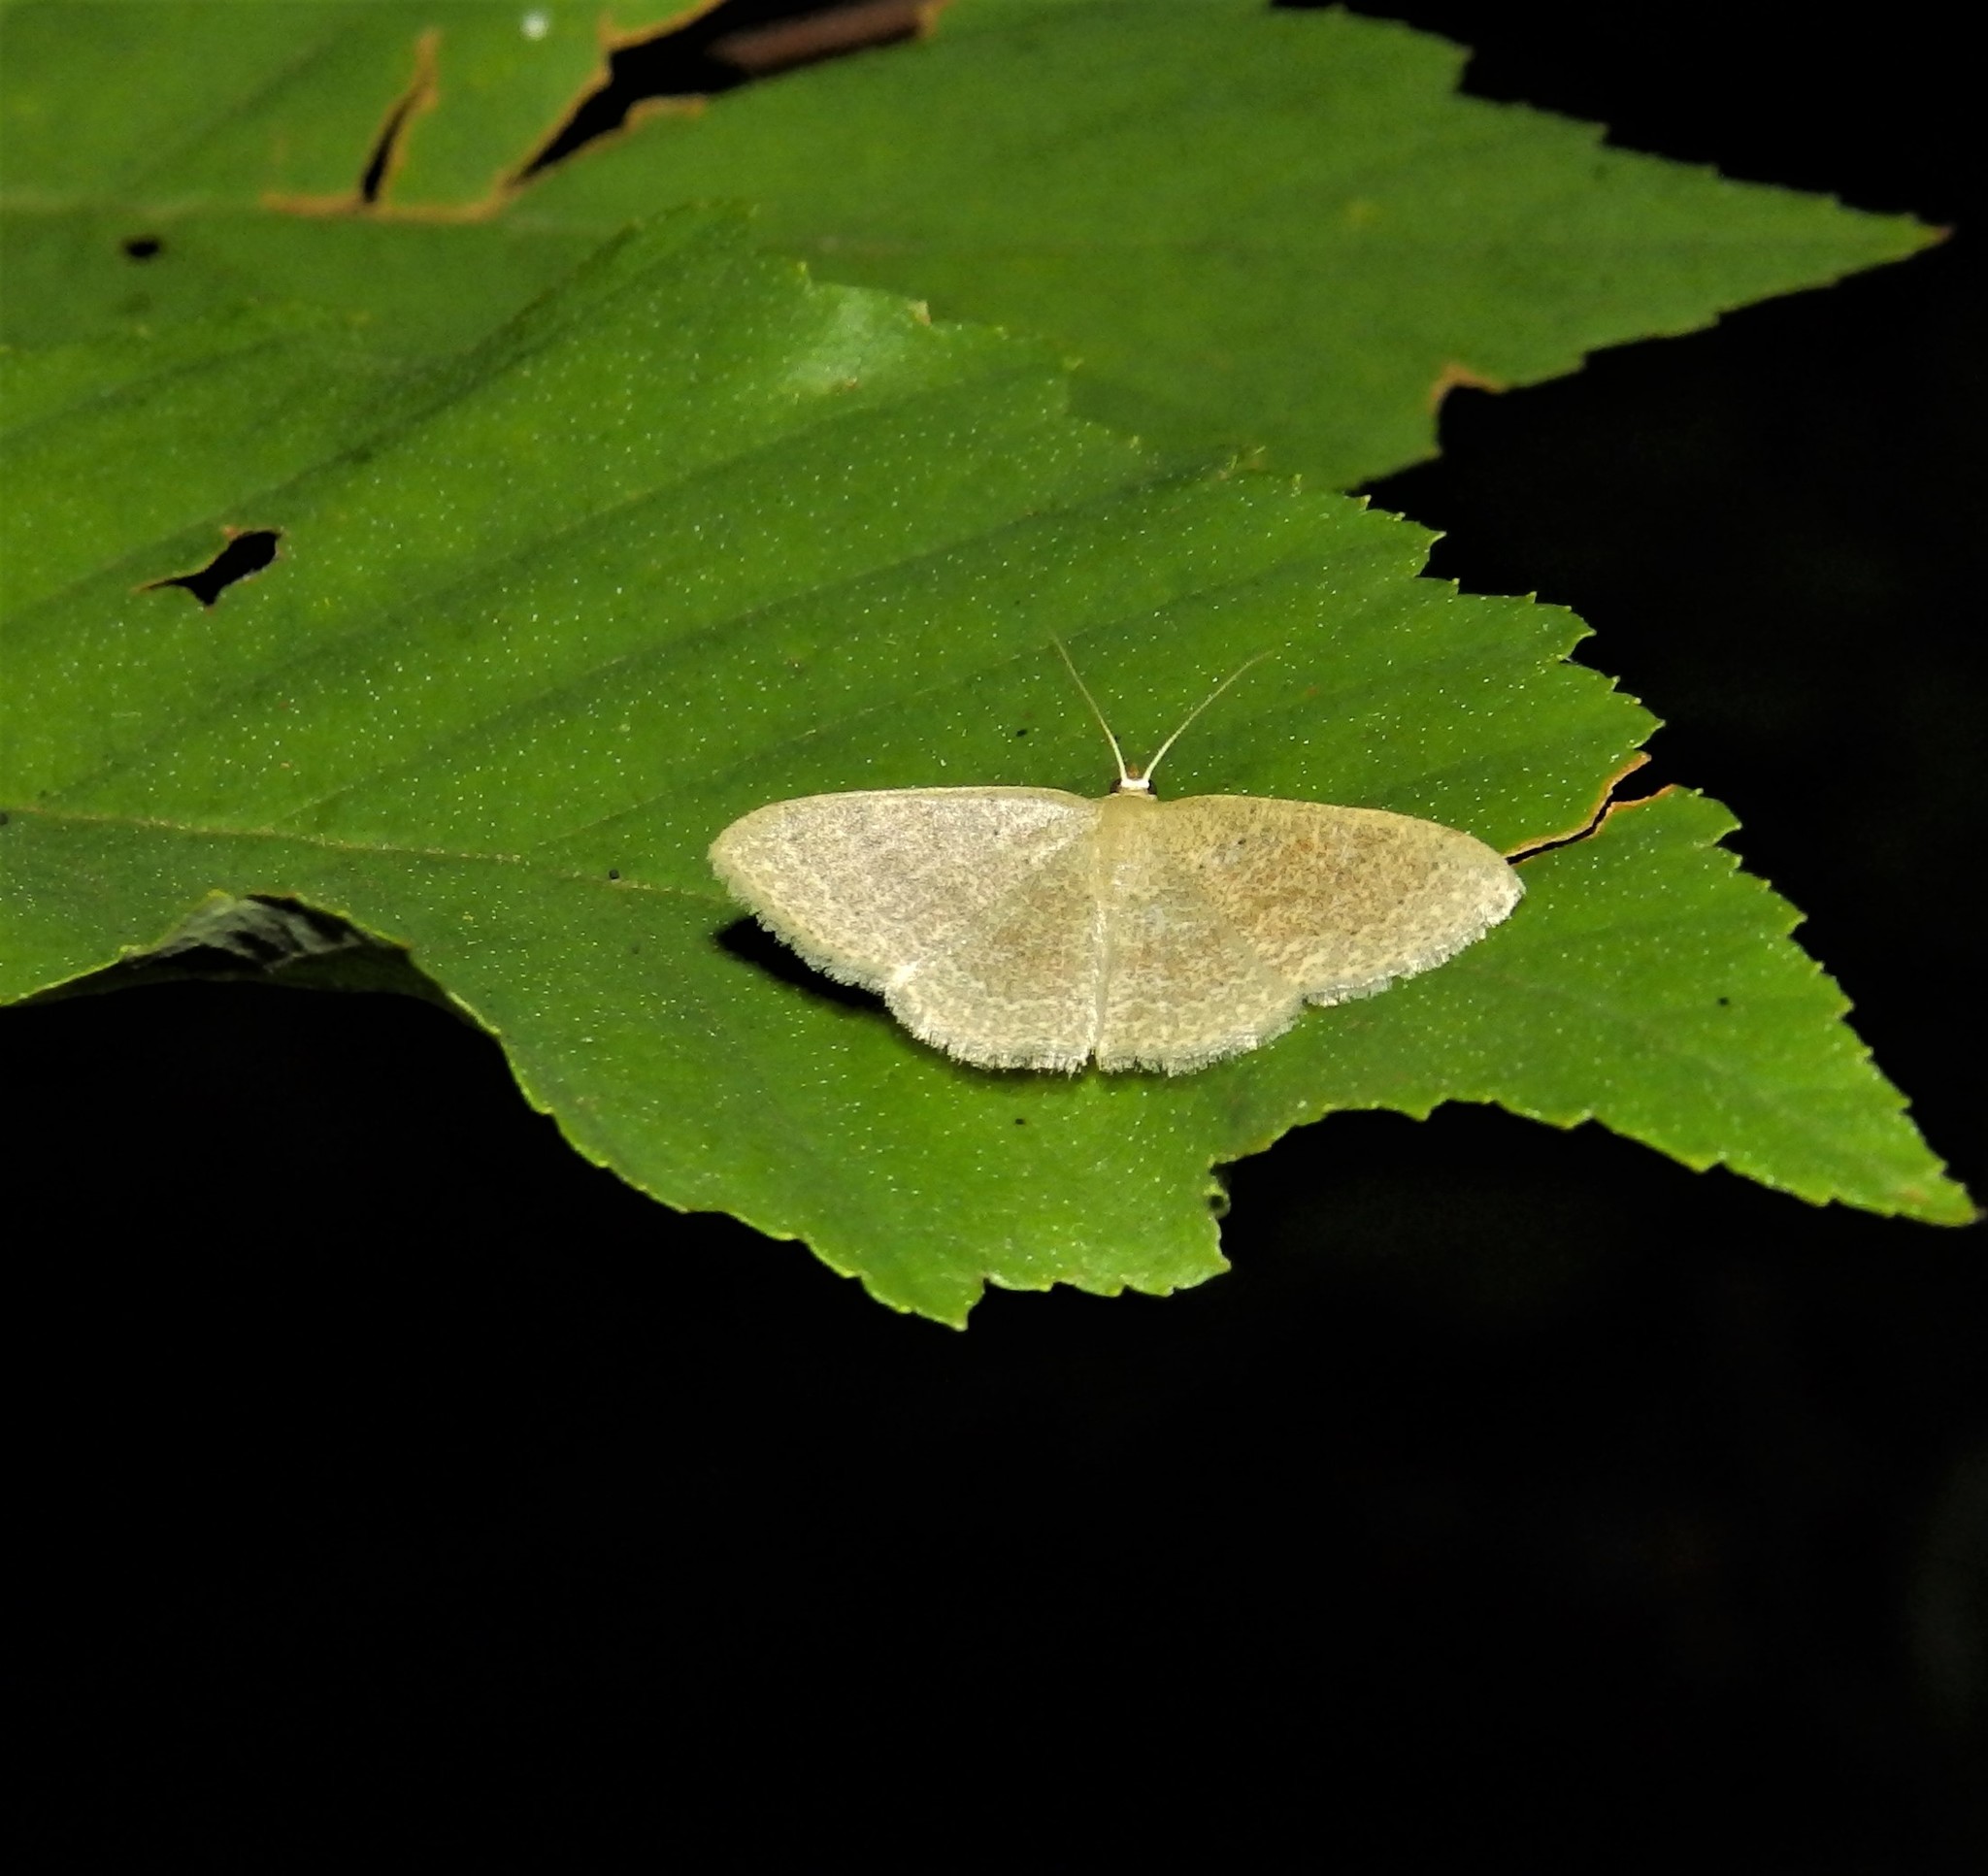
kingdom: Animalia
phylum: Arthropoda
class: Insecta
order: Lepidoptera
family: Geometridae
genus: Pleuroprucha
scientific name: Pleuroprucha insulsaria
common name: Common tan wave
